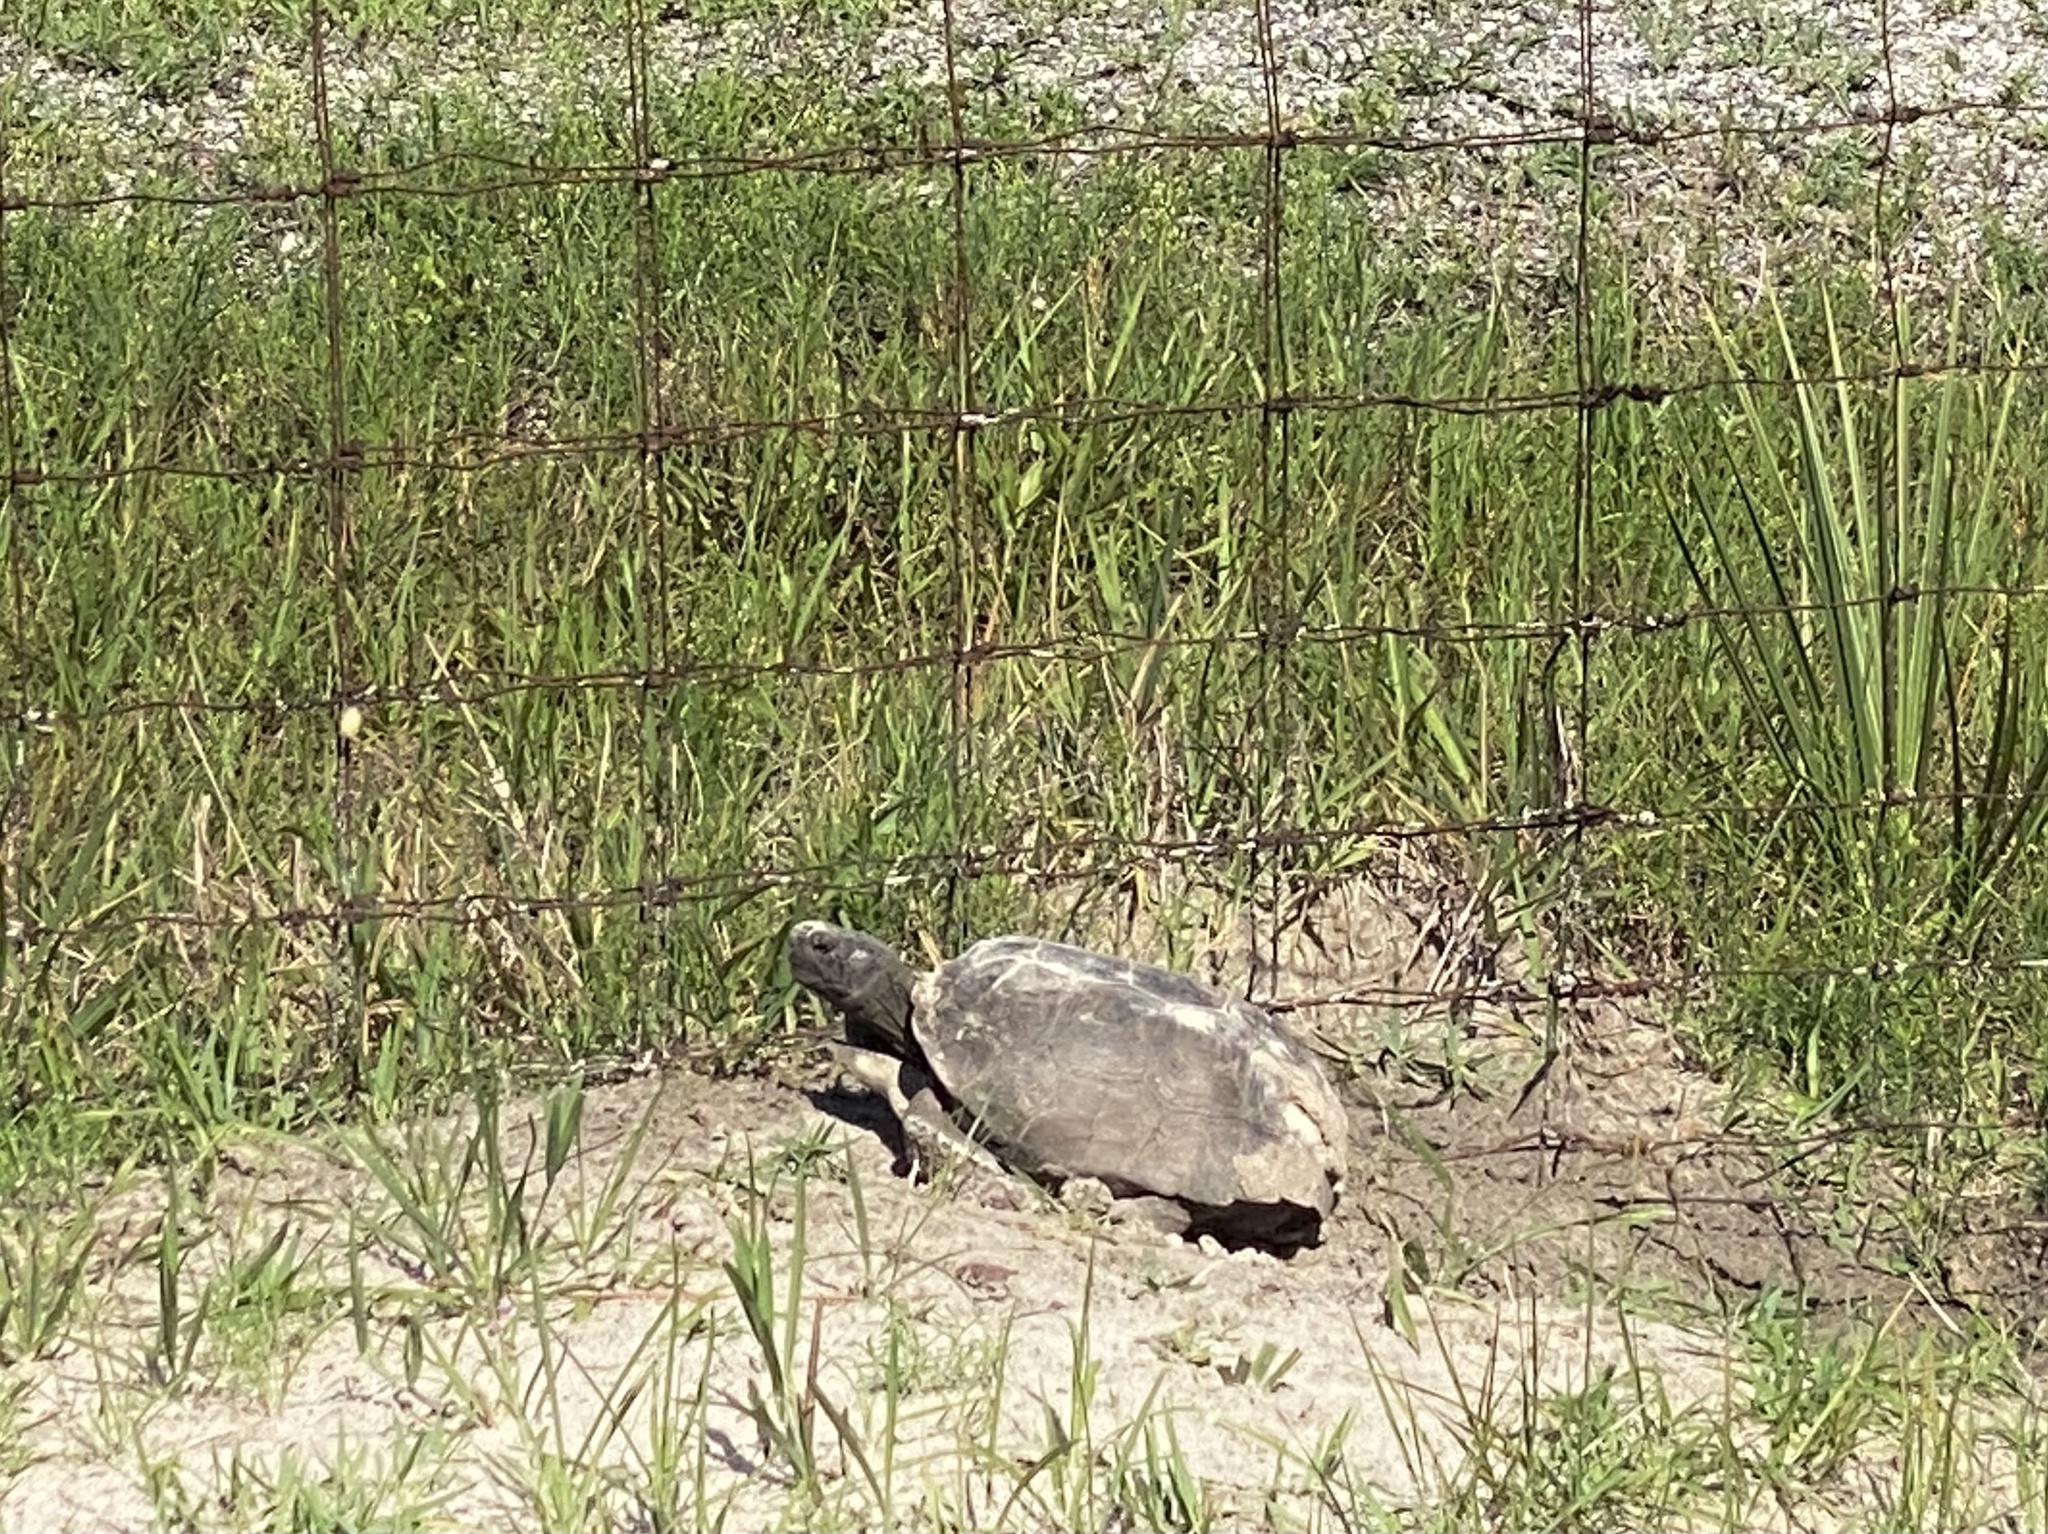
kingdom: Animalia
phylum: Chordata
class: Testudines
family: Testudinidae
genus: Gopherus
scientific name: Gopherus polyphemus
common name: Florida gopher tortoise
